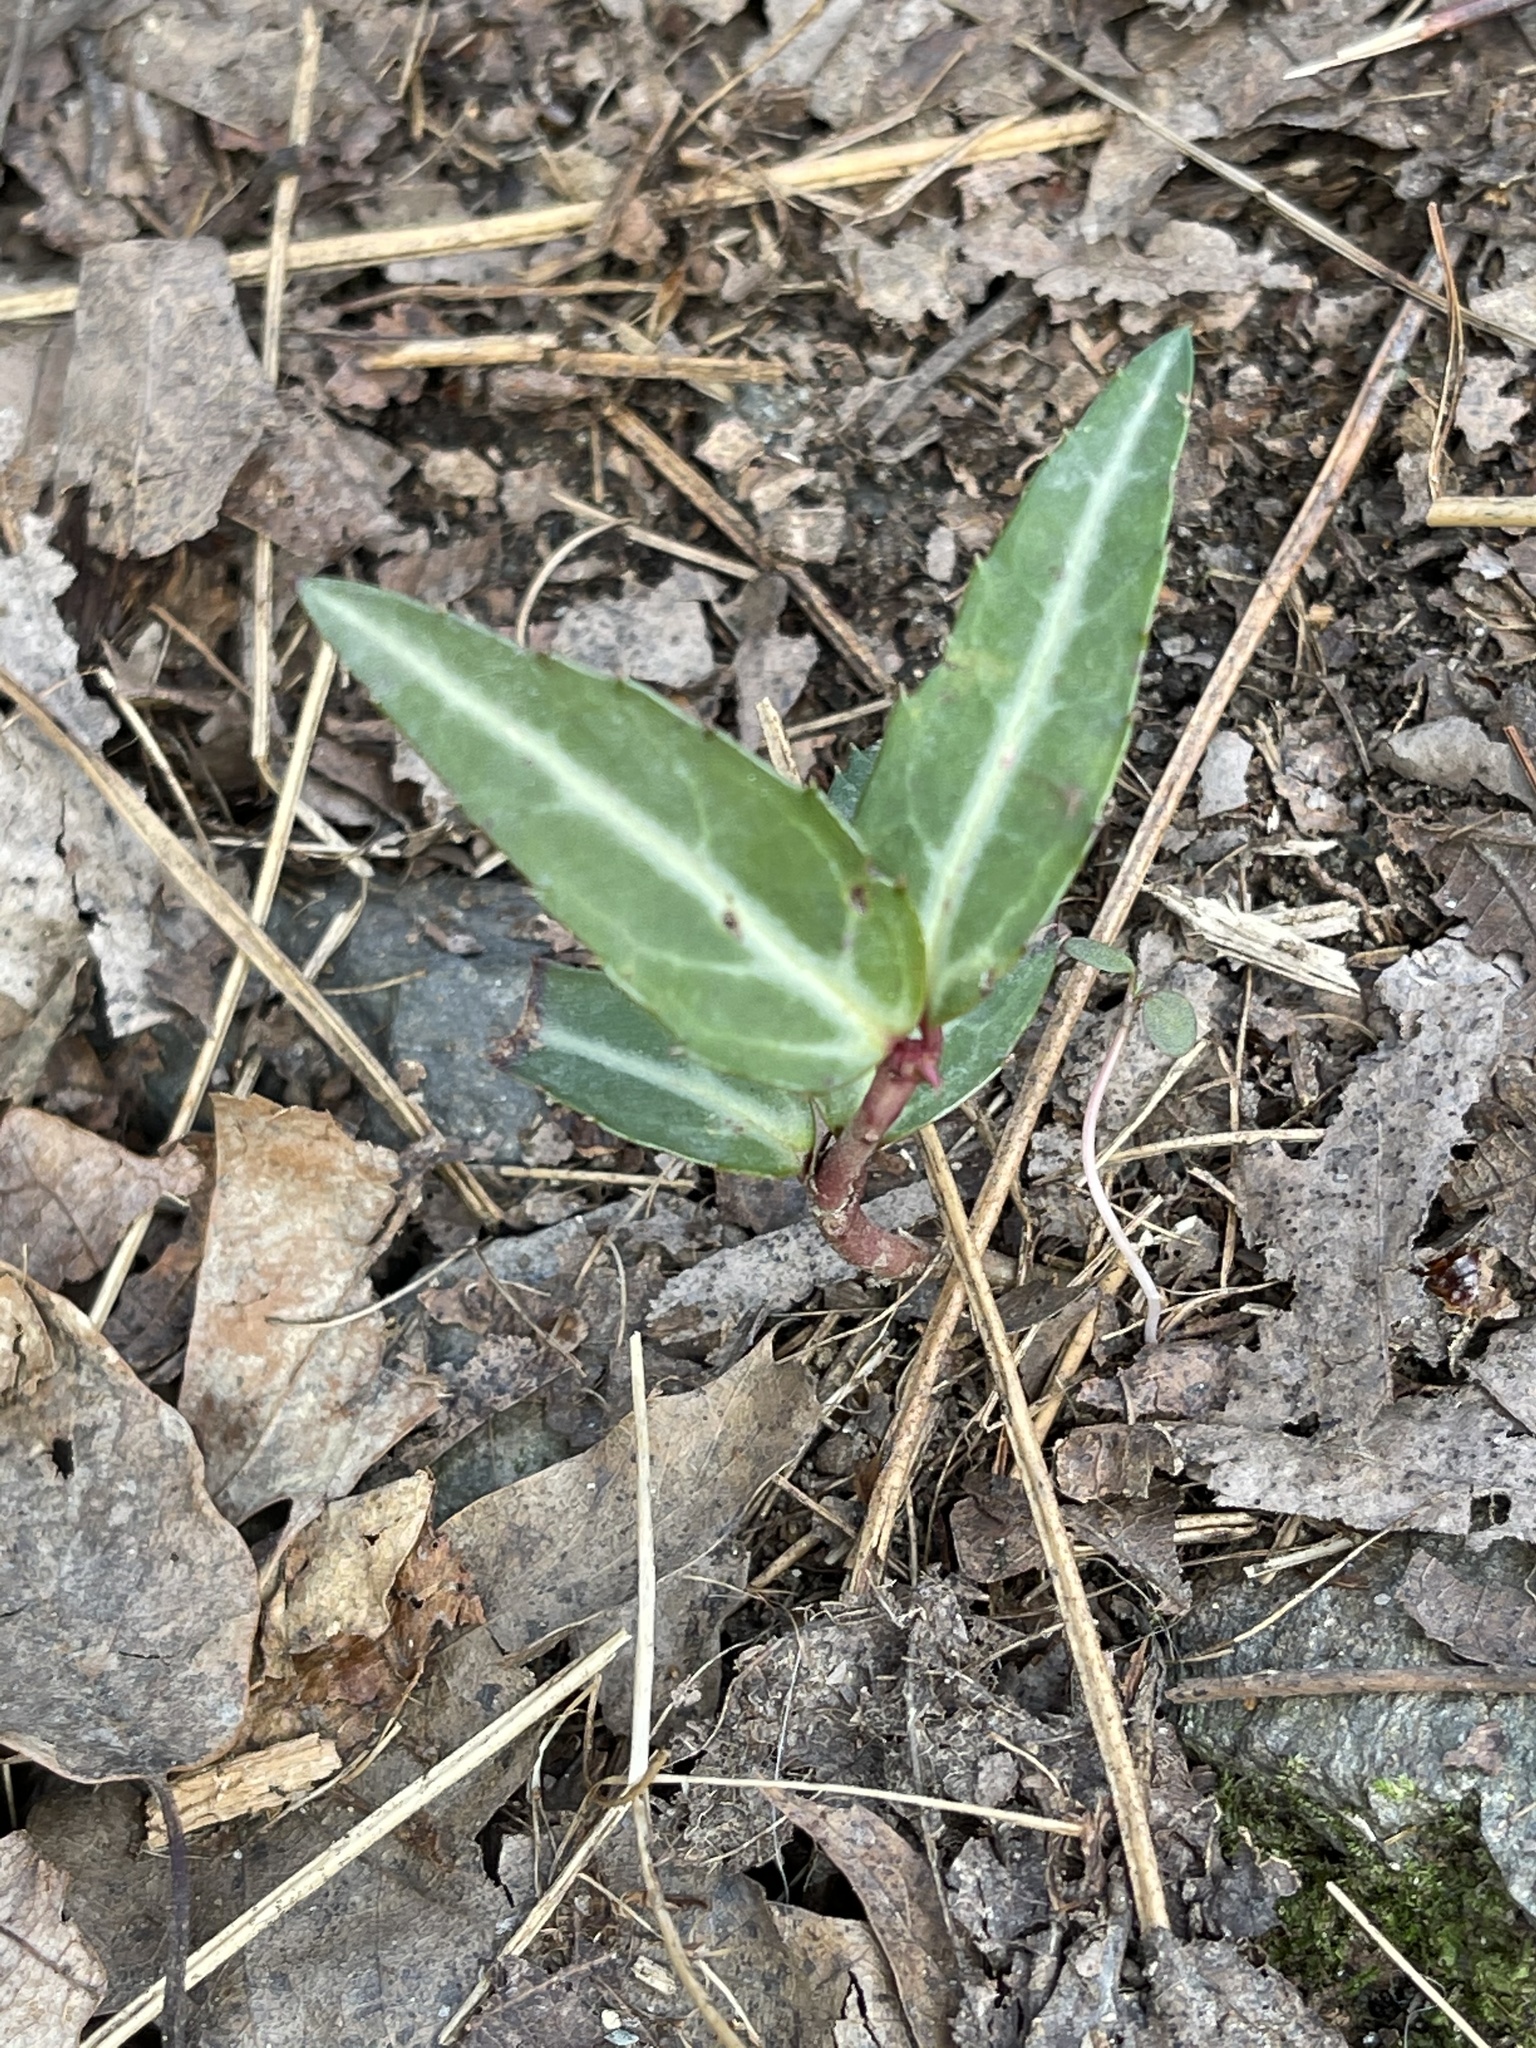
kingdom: Plantae
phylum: Tracheophyta
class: Magnoliopsida
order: Ericales
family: Ericaceae
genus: Chimaphila
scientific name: Chimaphila maculata
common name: Spotted pipsissewa
